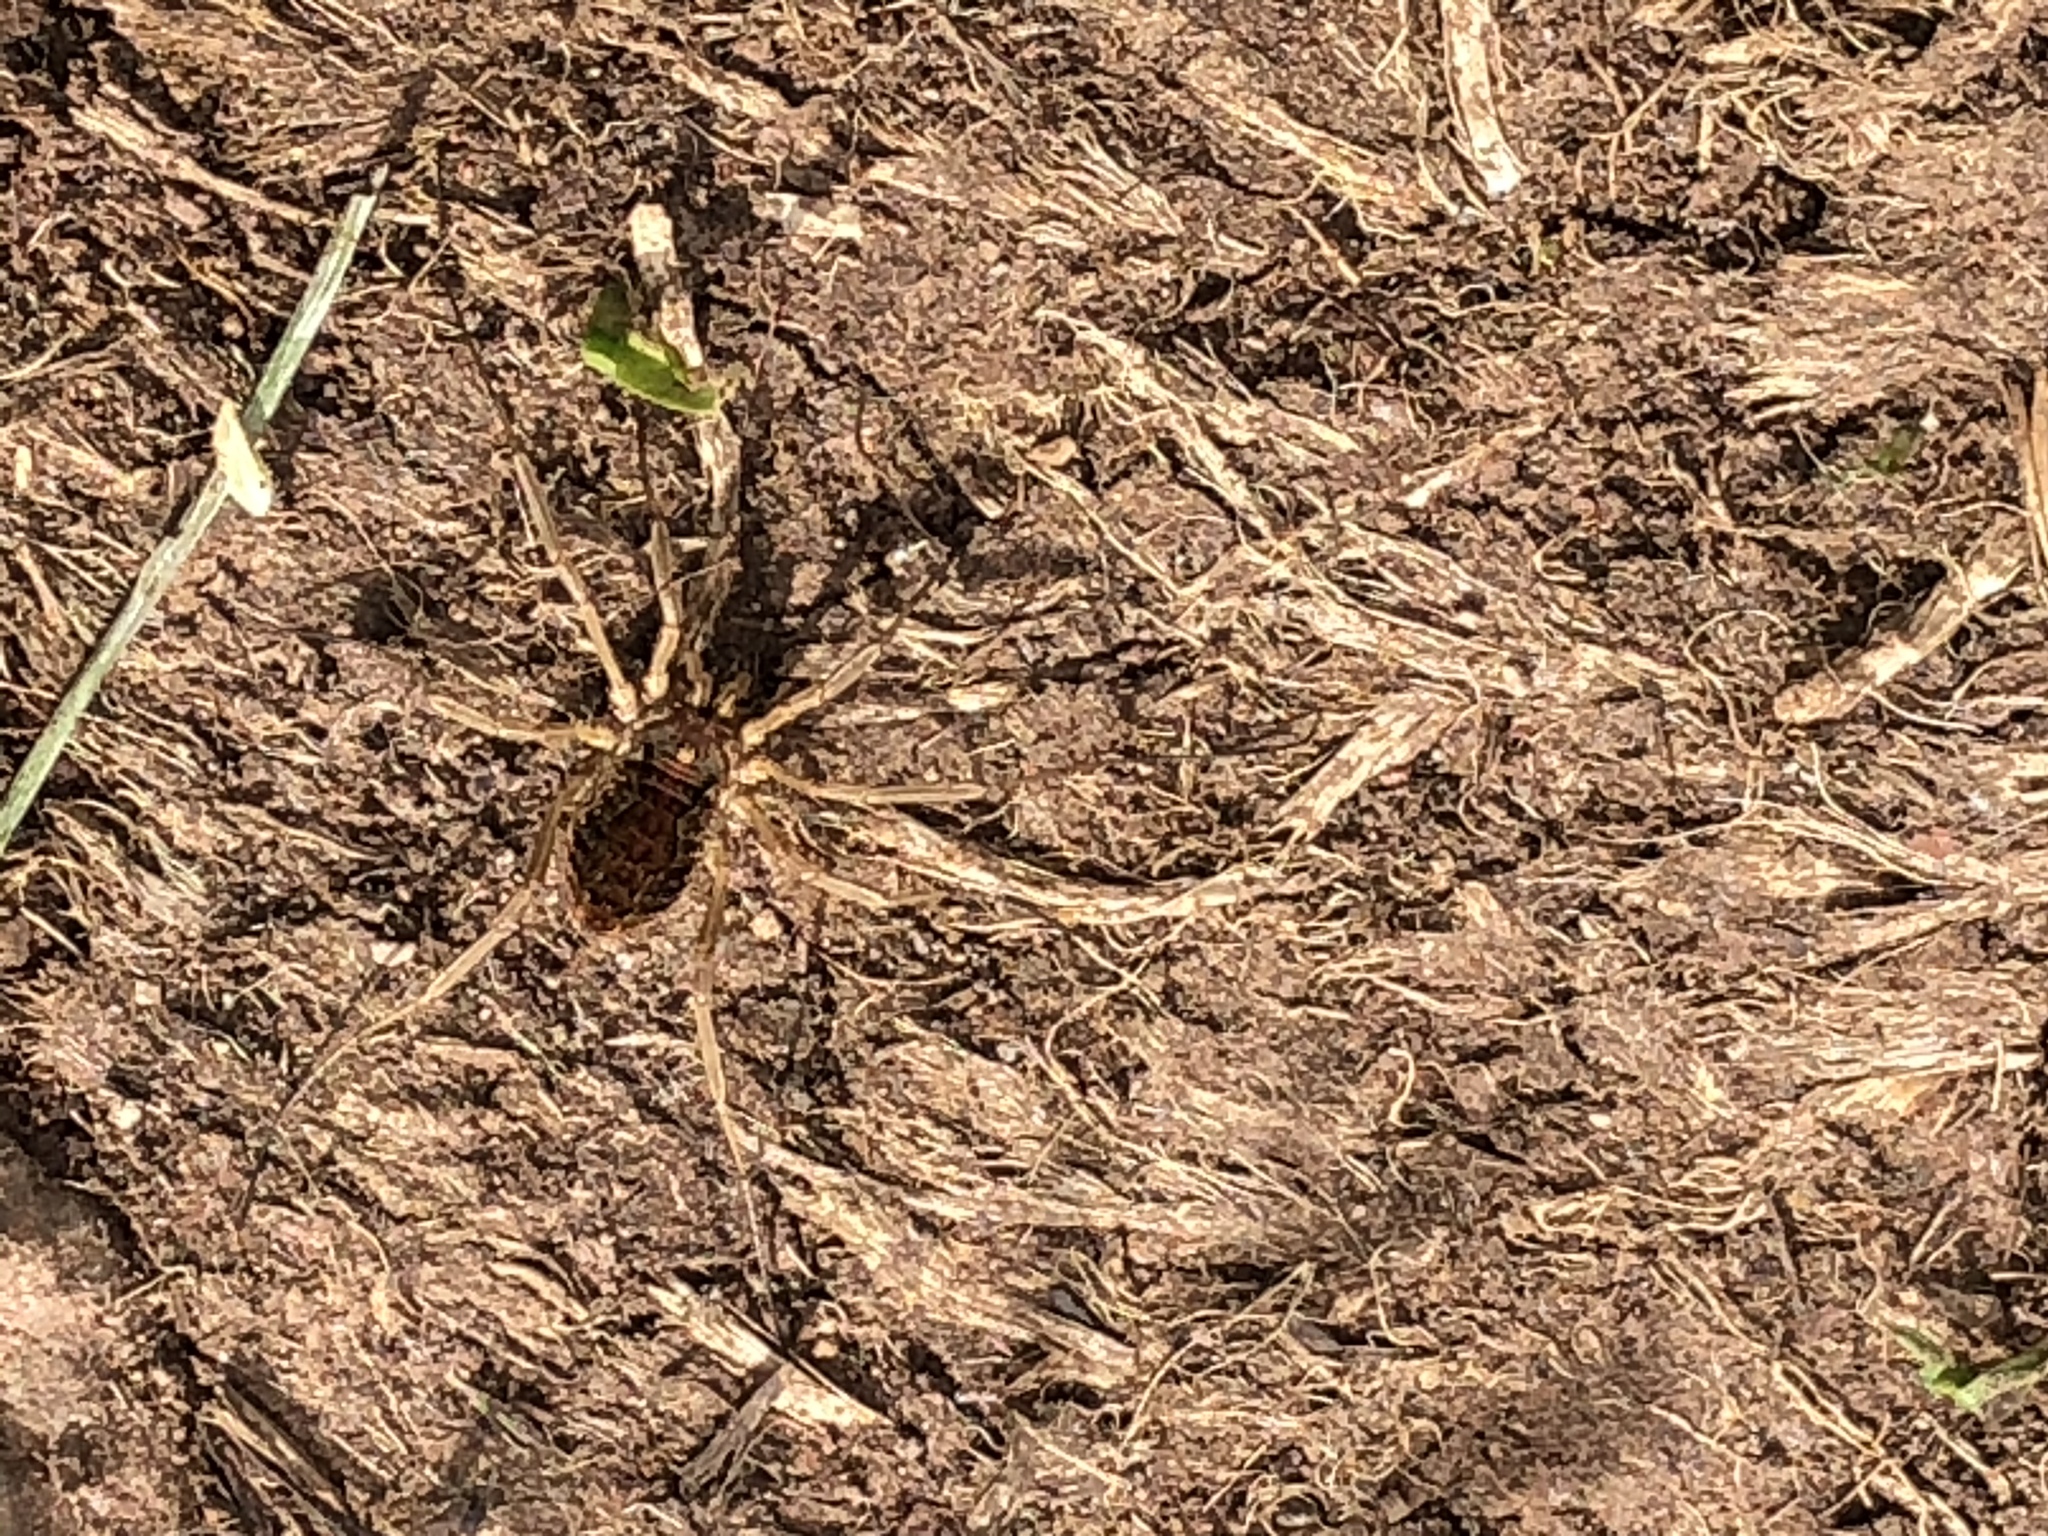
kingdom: Animalia
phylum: Arthropoda
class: Arachnida
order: Opiliones
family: Phalangiidae
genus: Mitopus
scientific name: Mitopus morio
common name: Saddleback harvestman
